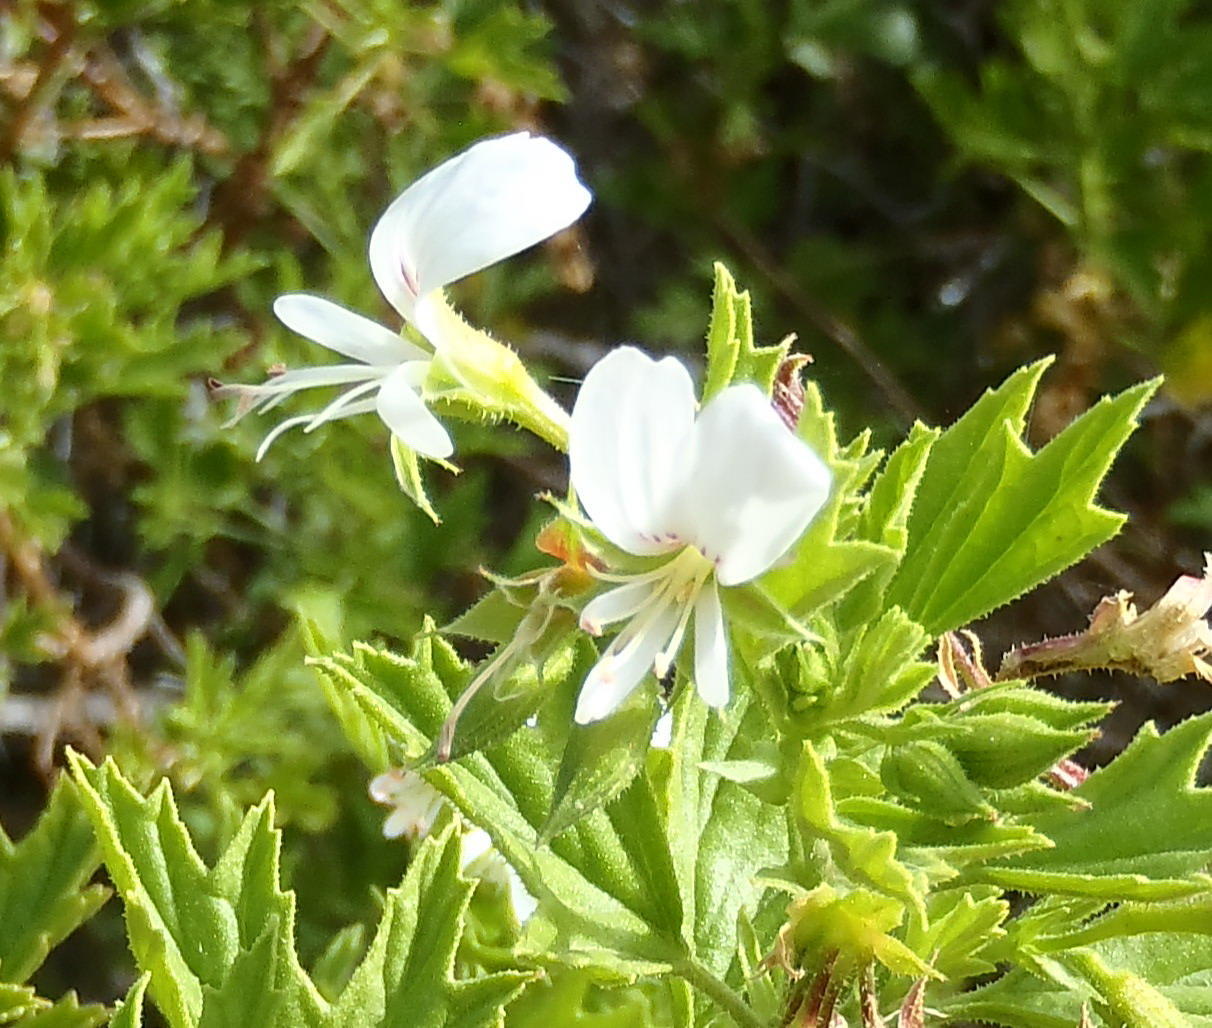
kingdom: Plantae
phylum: Tracheophyta
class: Magnoliopsida
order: Geraniales
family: Geraniaceae
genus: Pelargonium
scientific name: Pelargonium ribifolium
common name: Currant-leaf pelargonium
